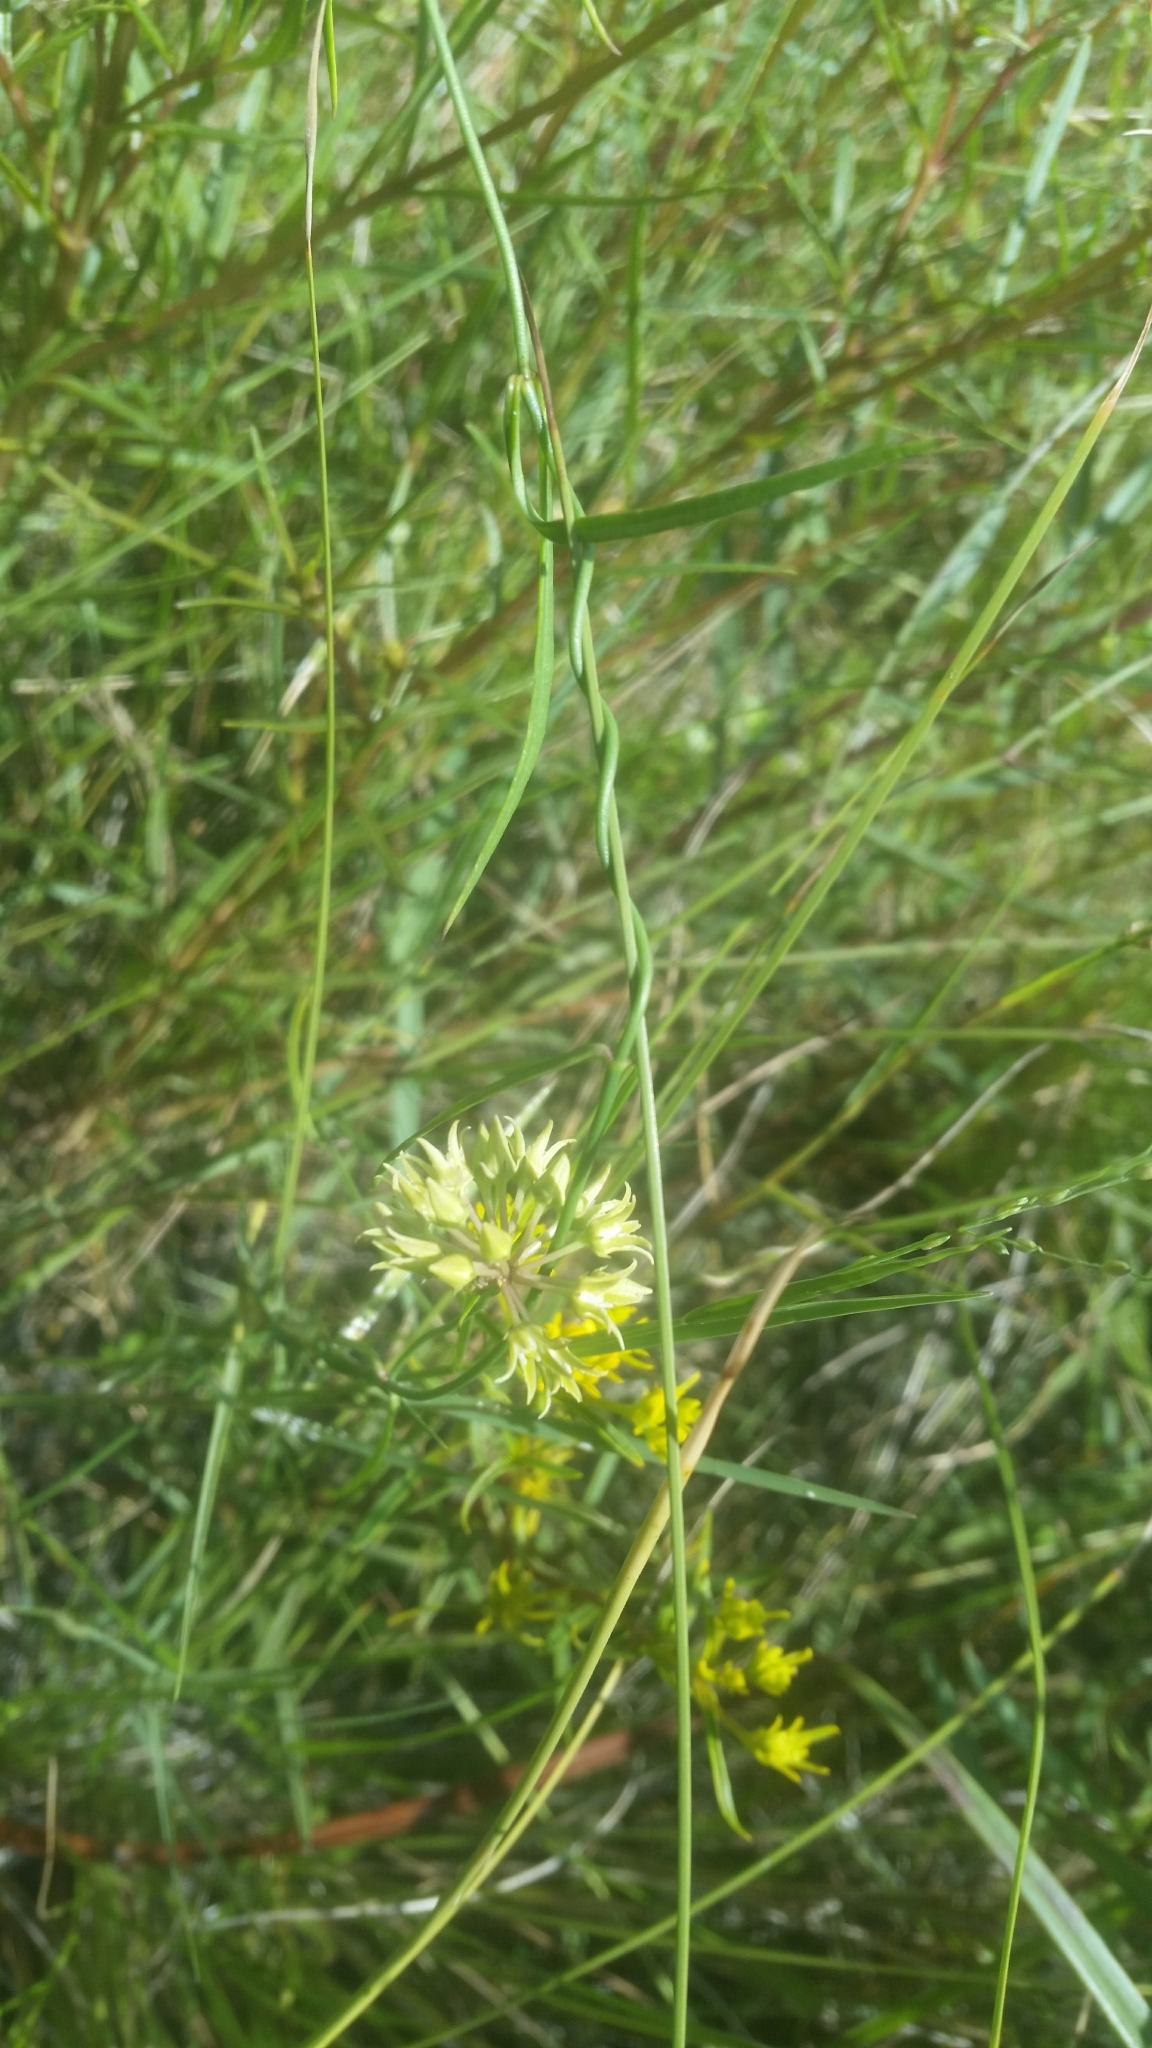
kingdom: Plantae
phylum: Tracheophyta
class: Magnoliopsida
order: Gentianales
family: Apocynaceae
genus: Pattalias
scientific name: Pattalias
